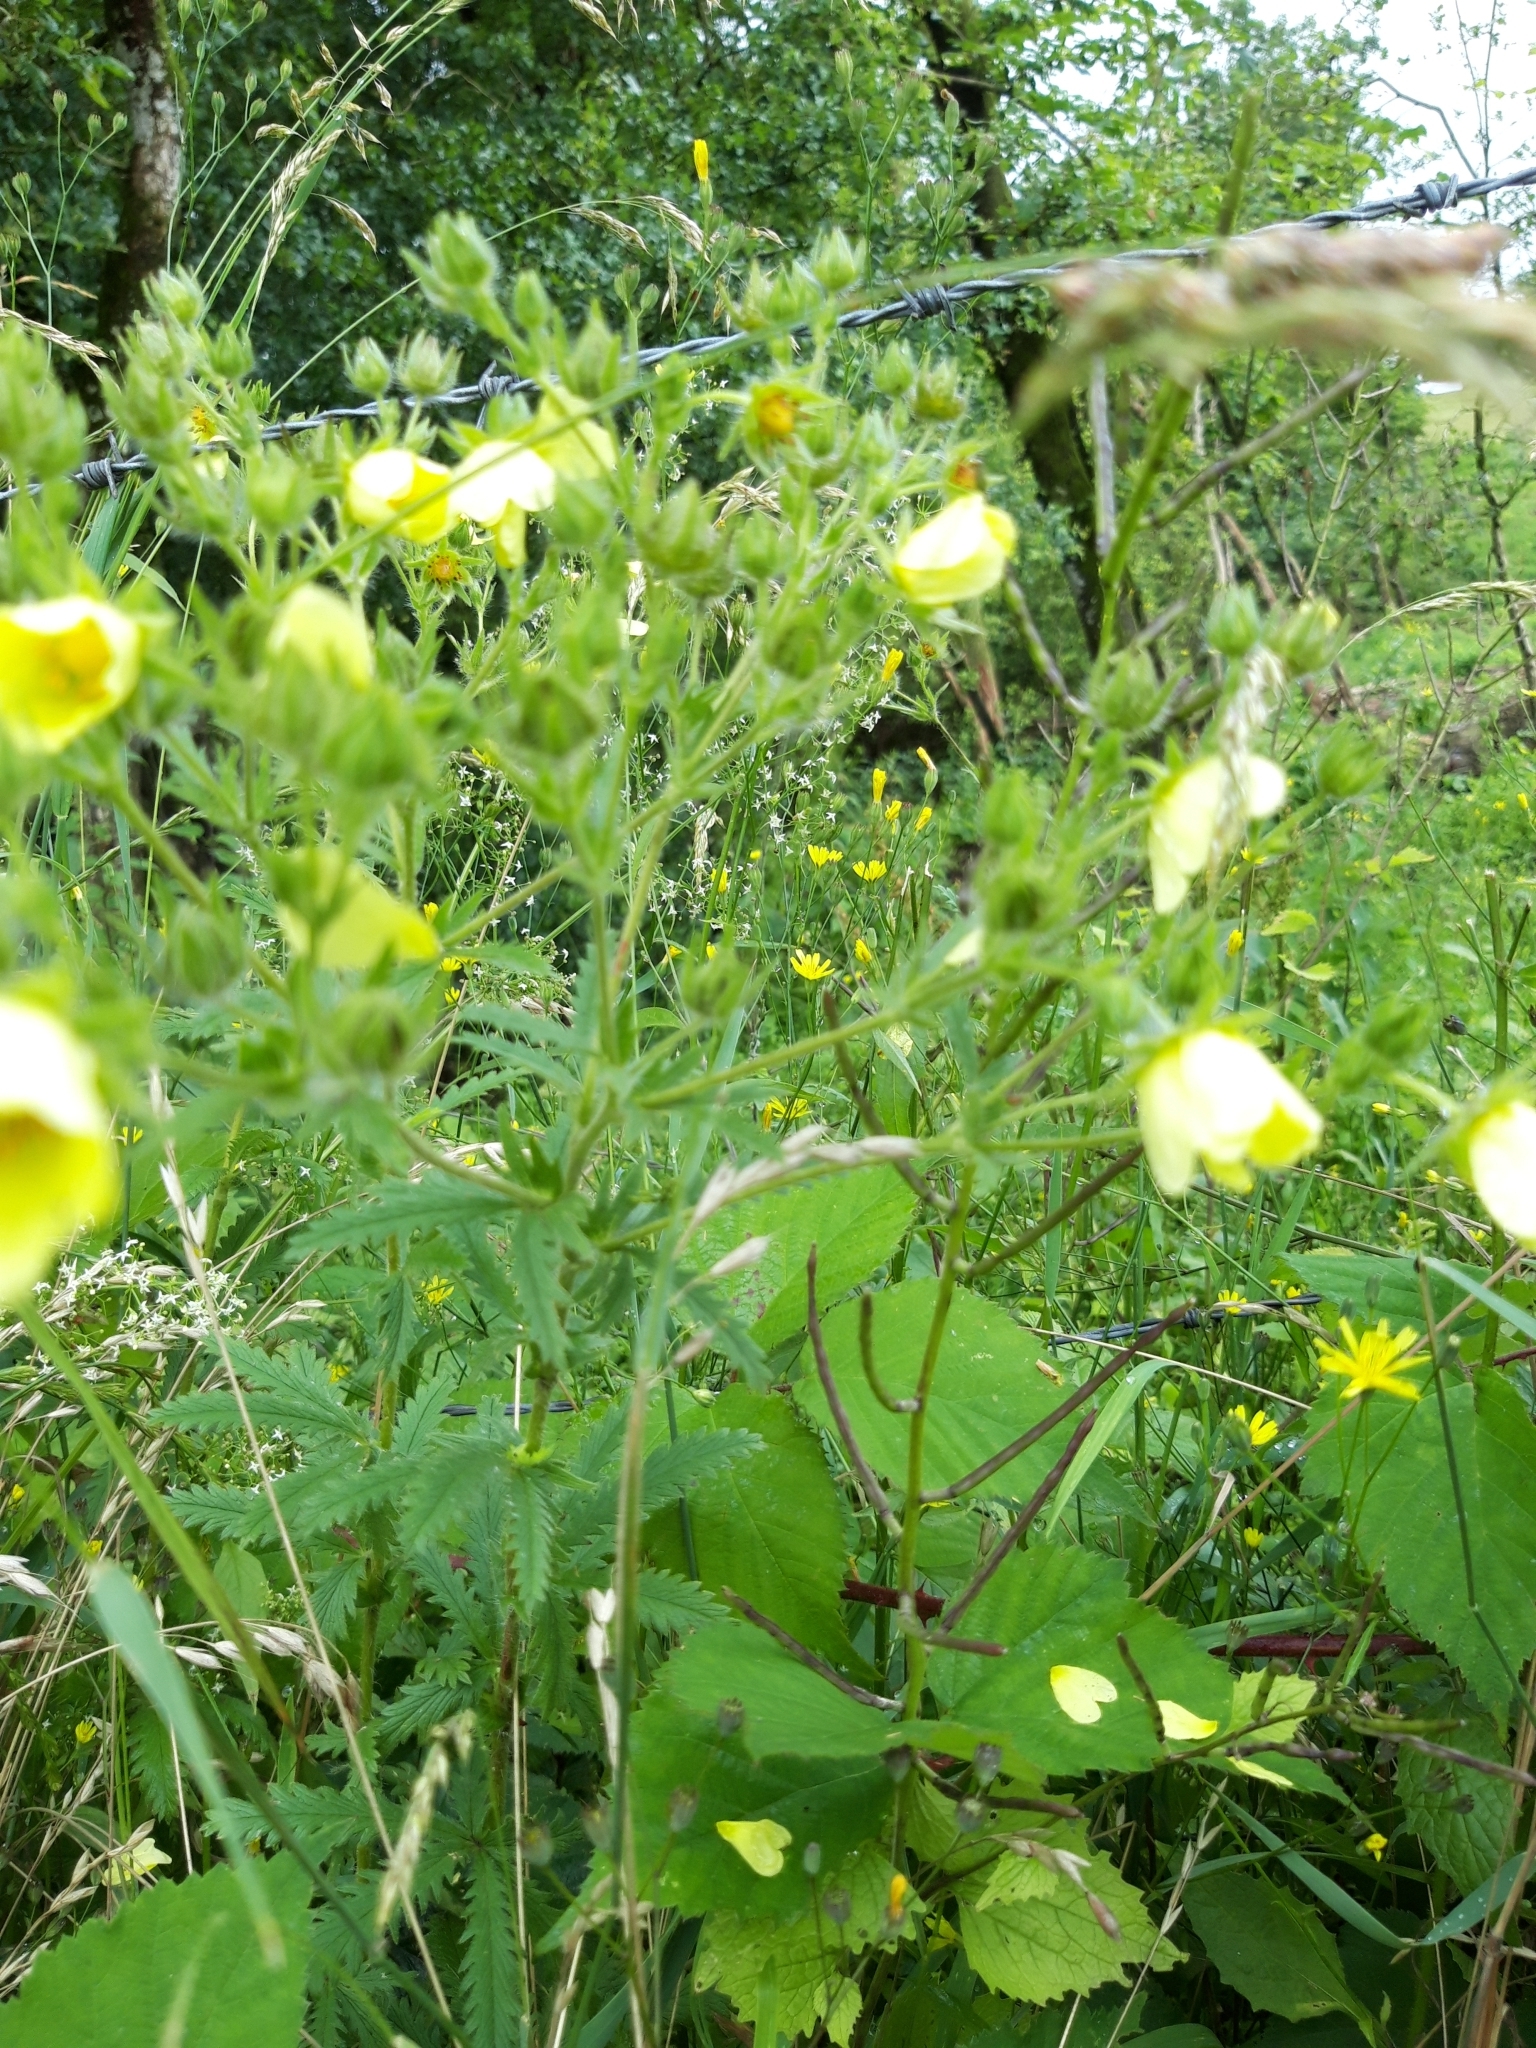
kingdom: Plantae
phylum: Tracheophyta
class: Magnoliopsida
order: Rosales
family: Rosaceae
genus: Potentilla
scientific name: Potentilla recta
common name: Sulphur cinquefoil
